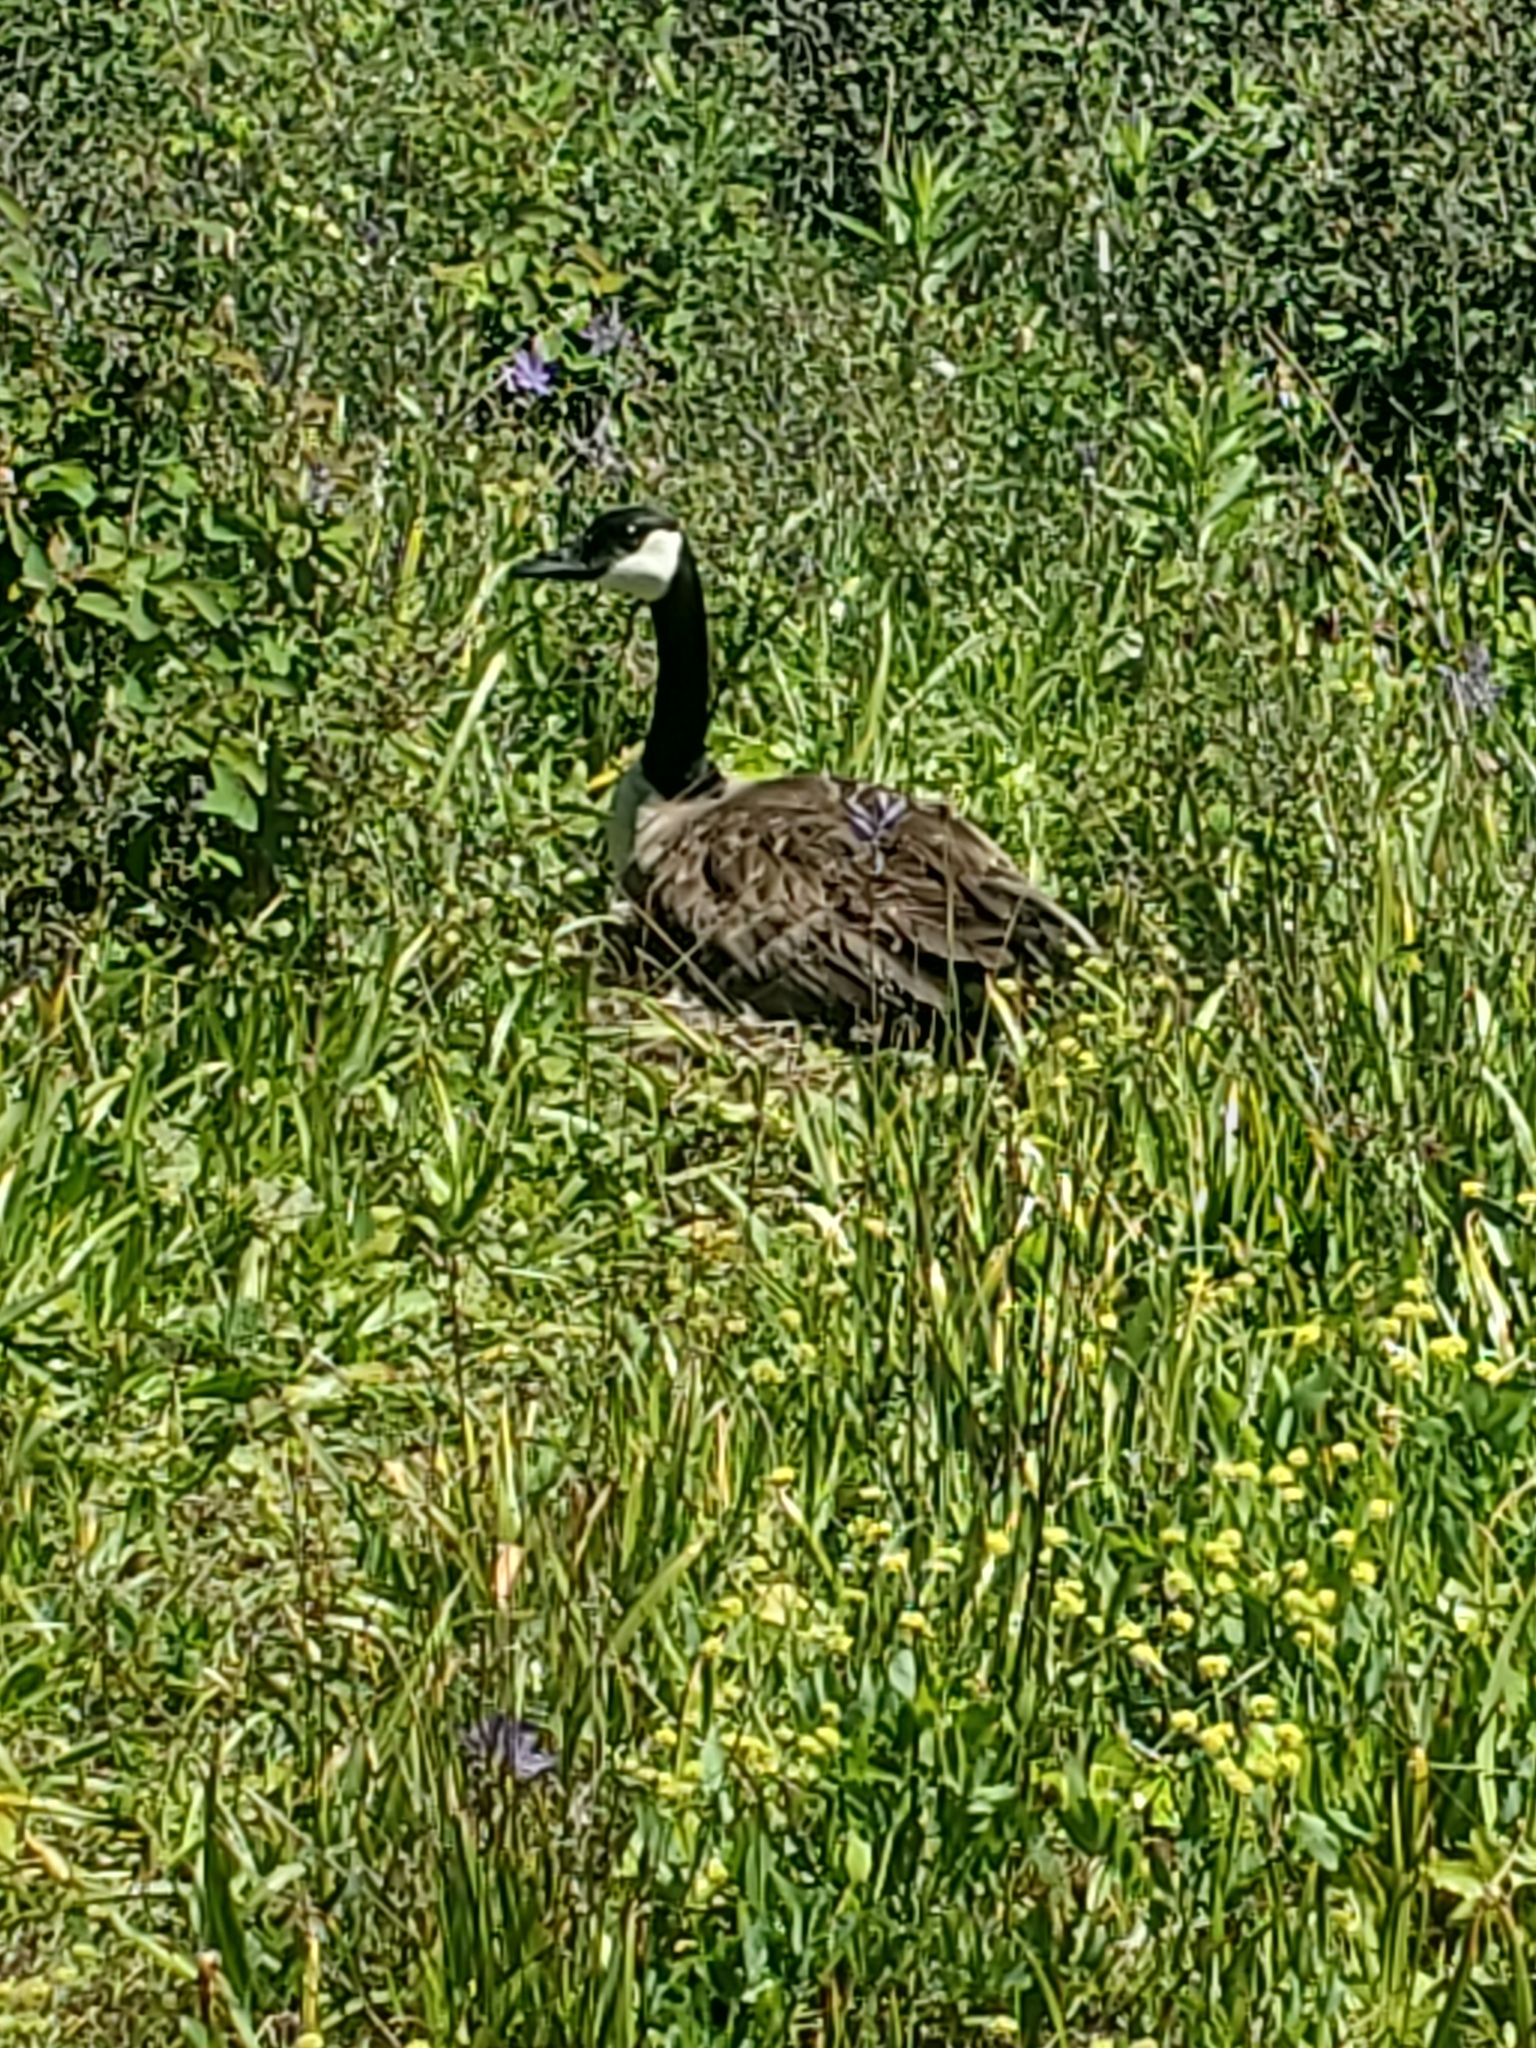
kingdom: Animalia
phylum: Chordata
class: Aves
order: Anseriformes
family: Anatidae
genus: Branta
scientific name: Branta canadensis
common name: Canada goose
